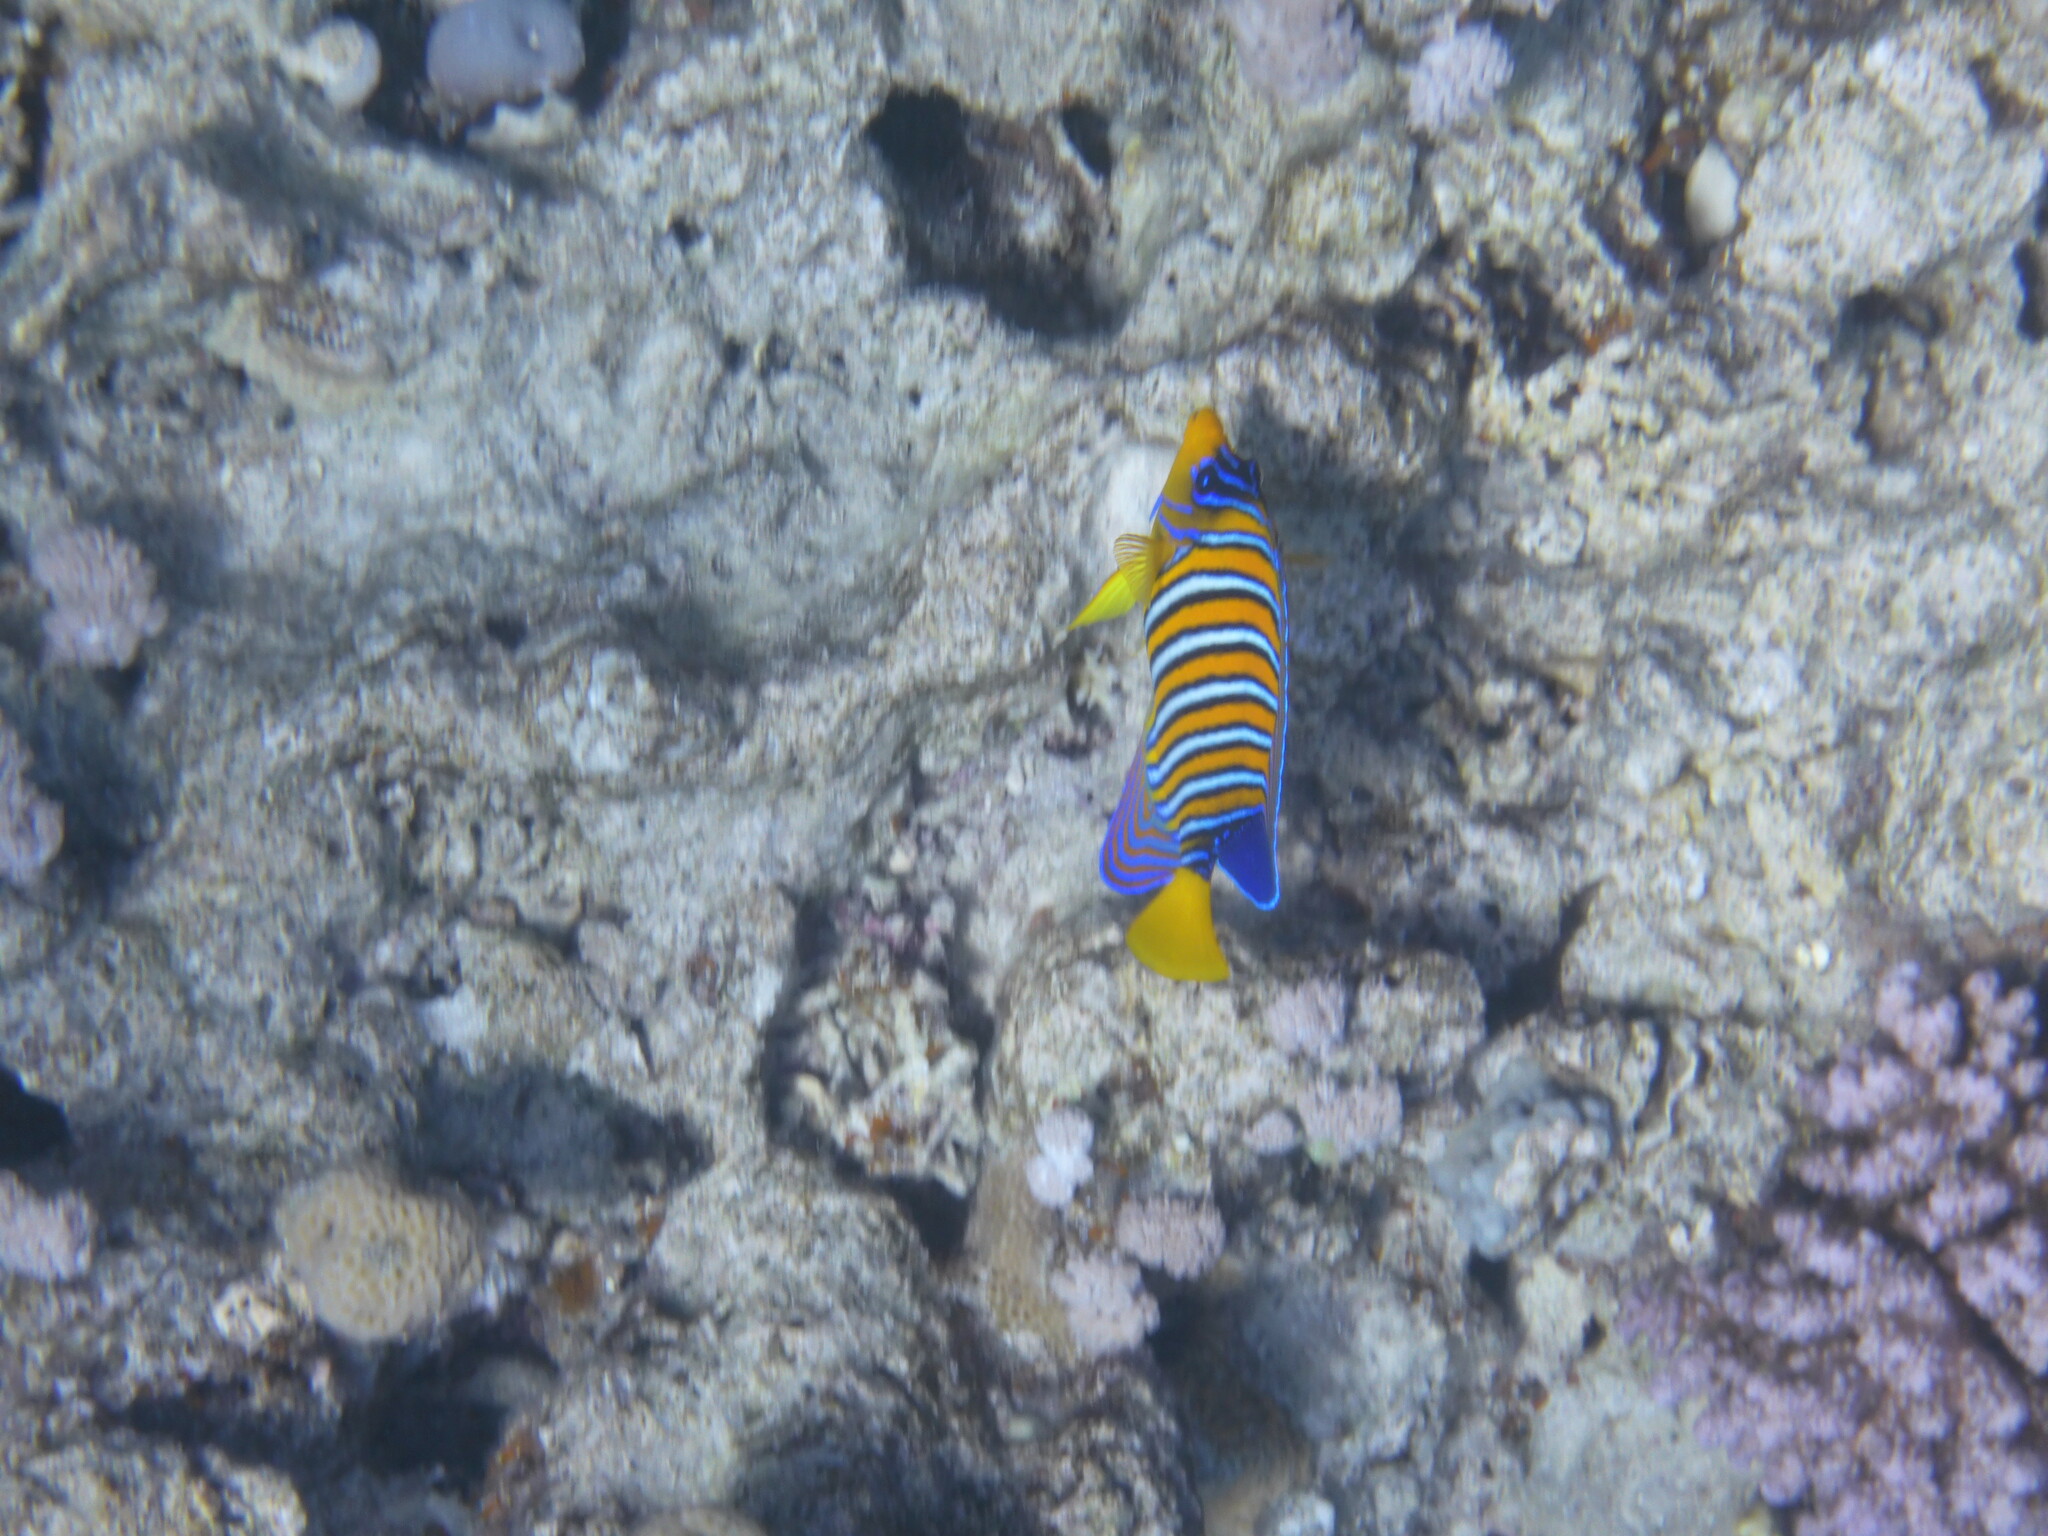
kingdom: Animalia
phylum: Chordata
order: Perciformes
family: Pomacanthidae
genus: Pygoplites
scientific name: Pygoplites diacanthus
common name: Regal angelfish
